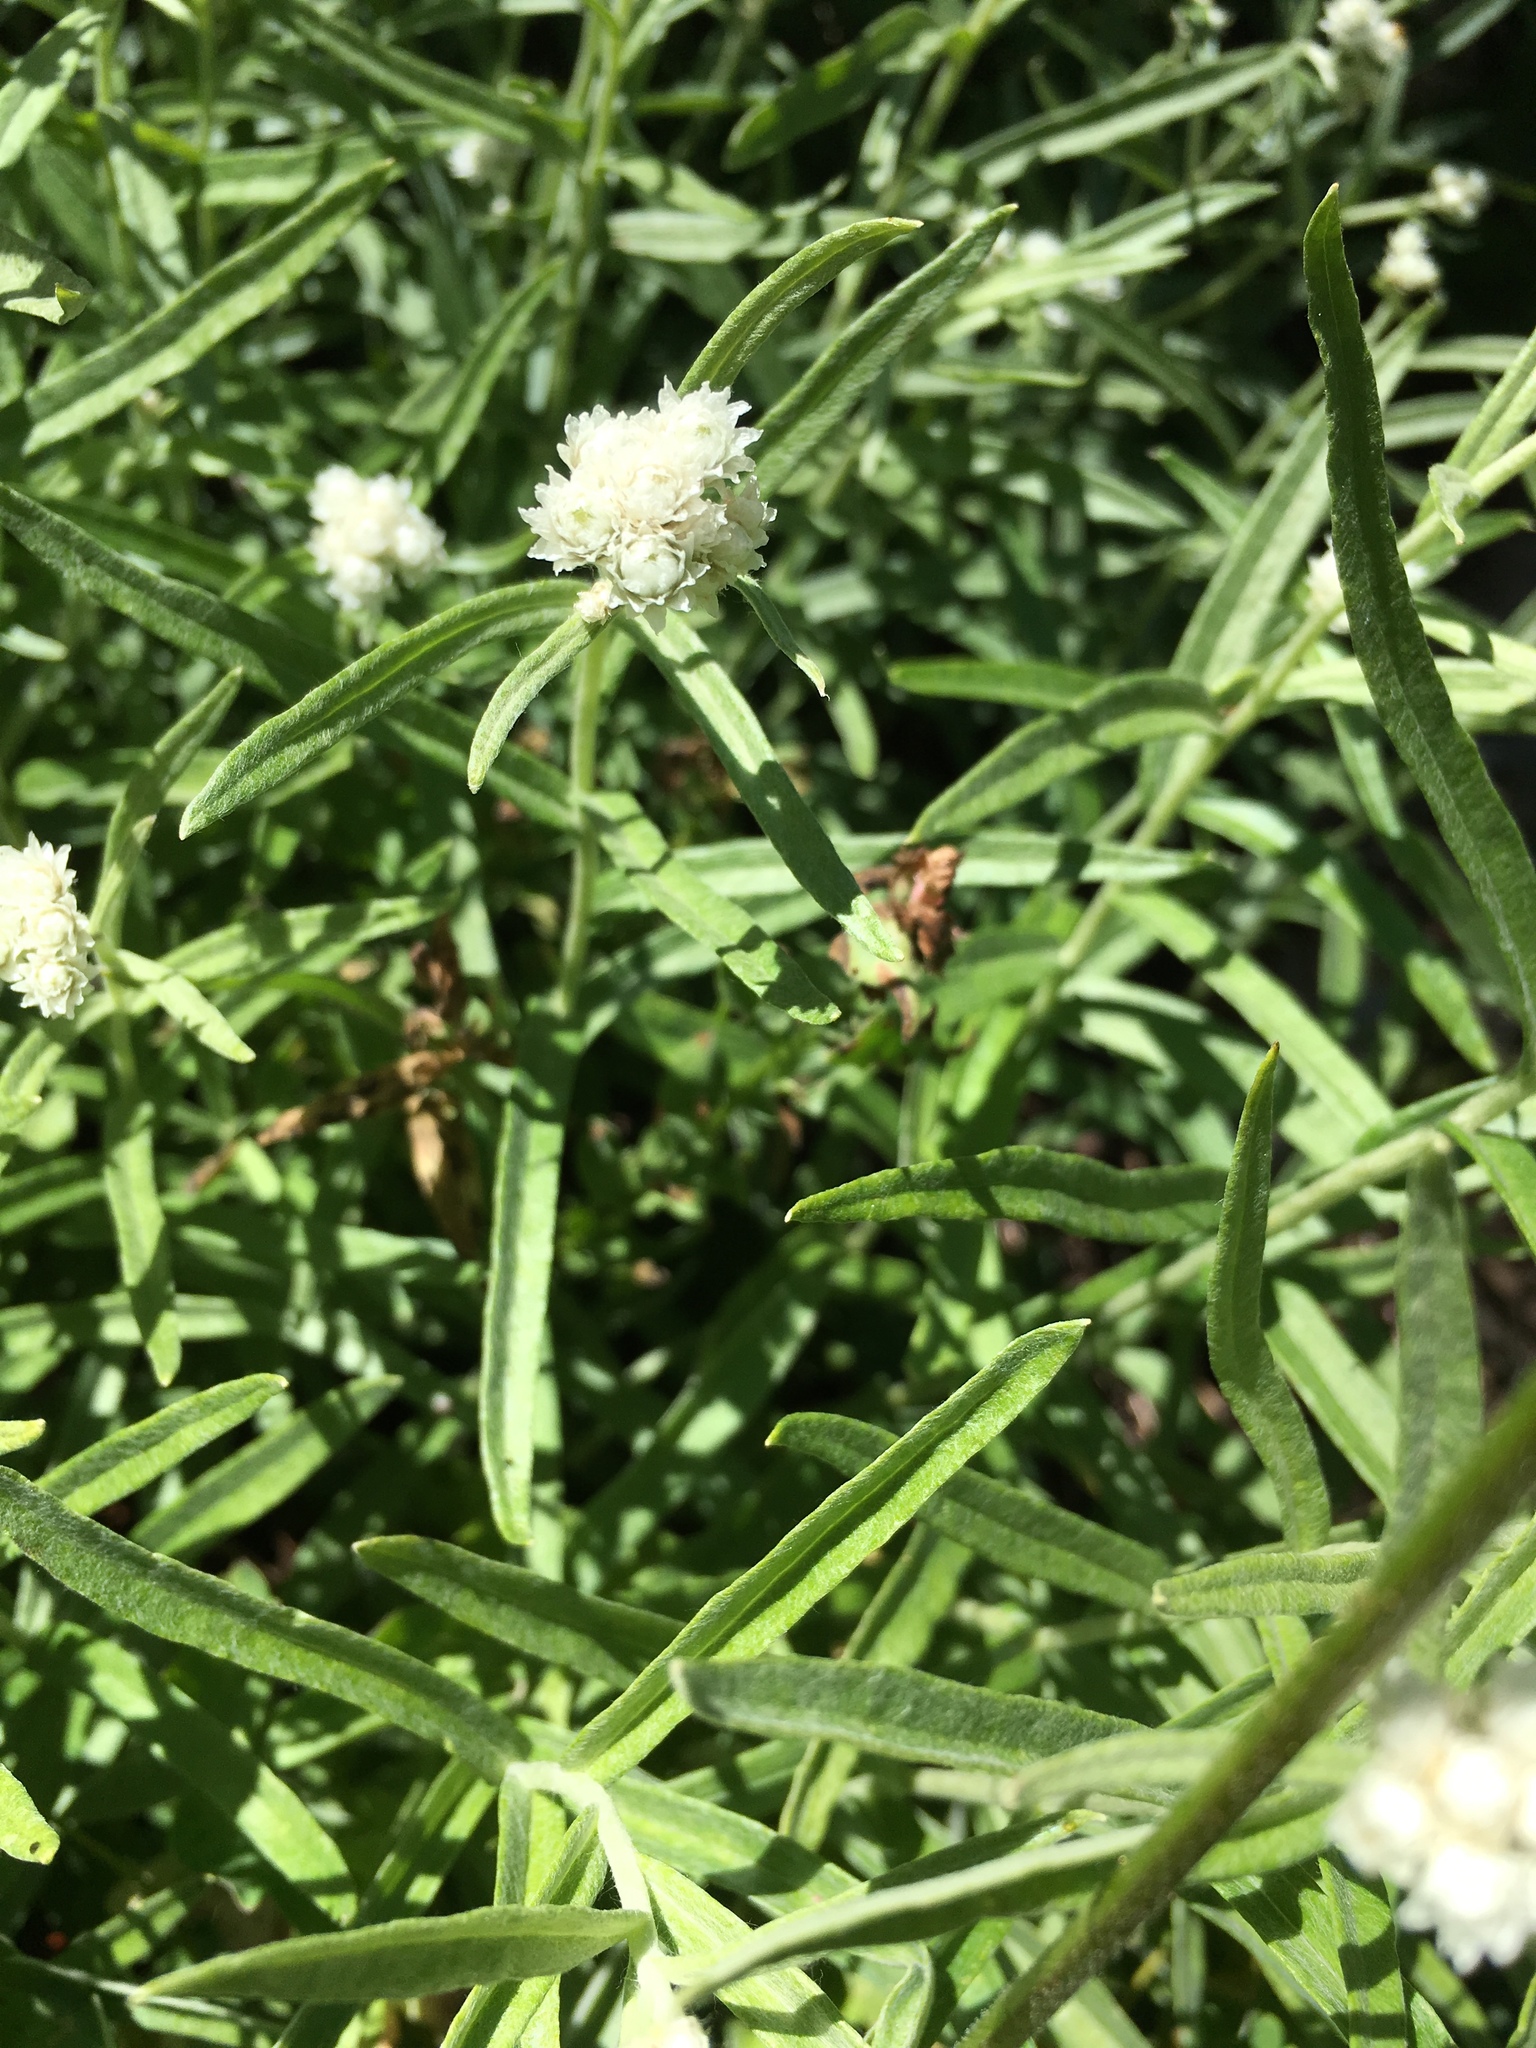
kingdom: Plantae
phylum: Tracheophyta
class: Magnoliopsida
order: Asterales
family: Asteraceae
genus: Anaphalis
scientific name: Anaphalis margaritacea
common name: Pearly everlasting
